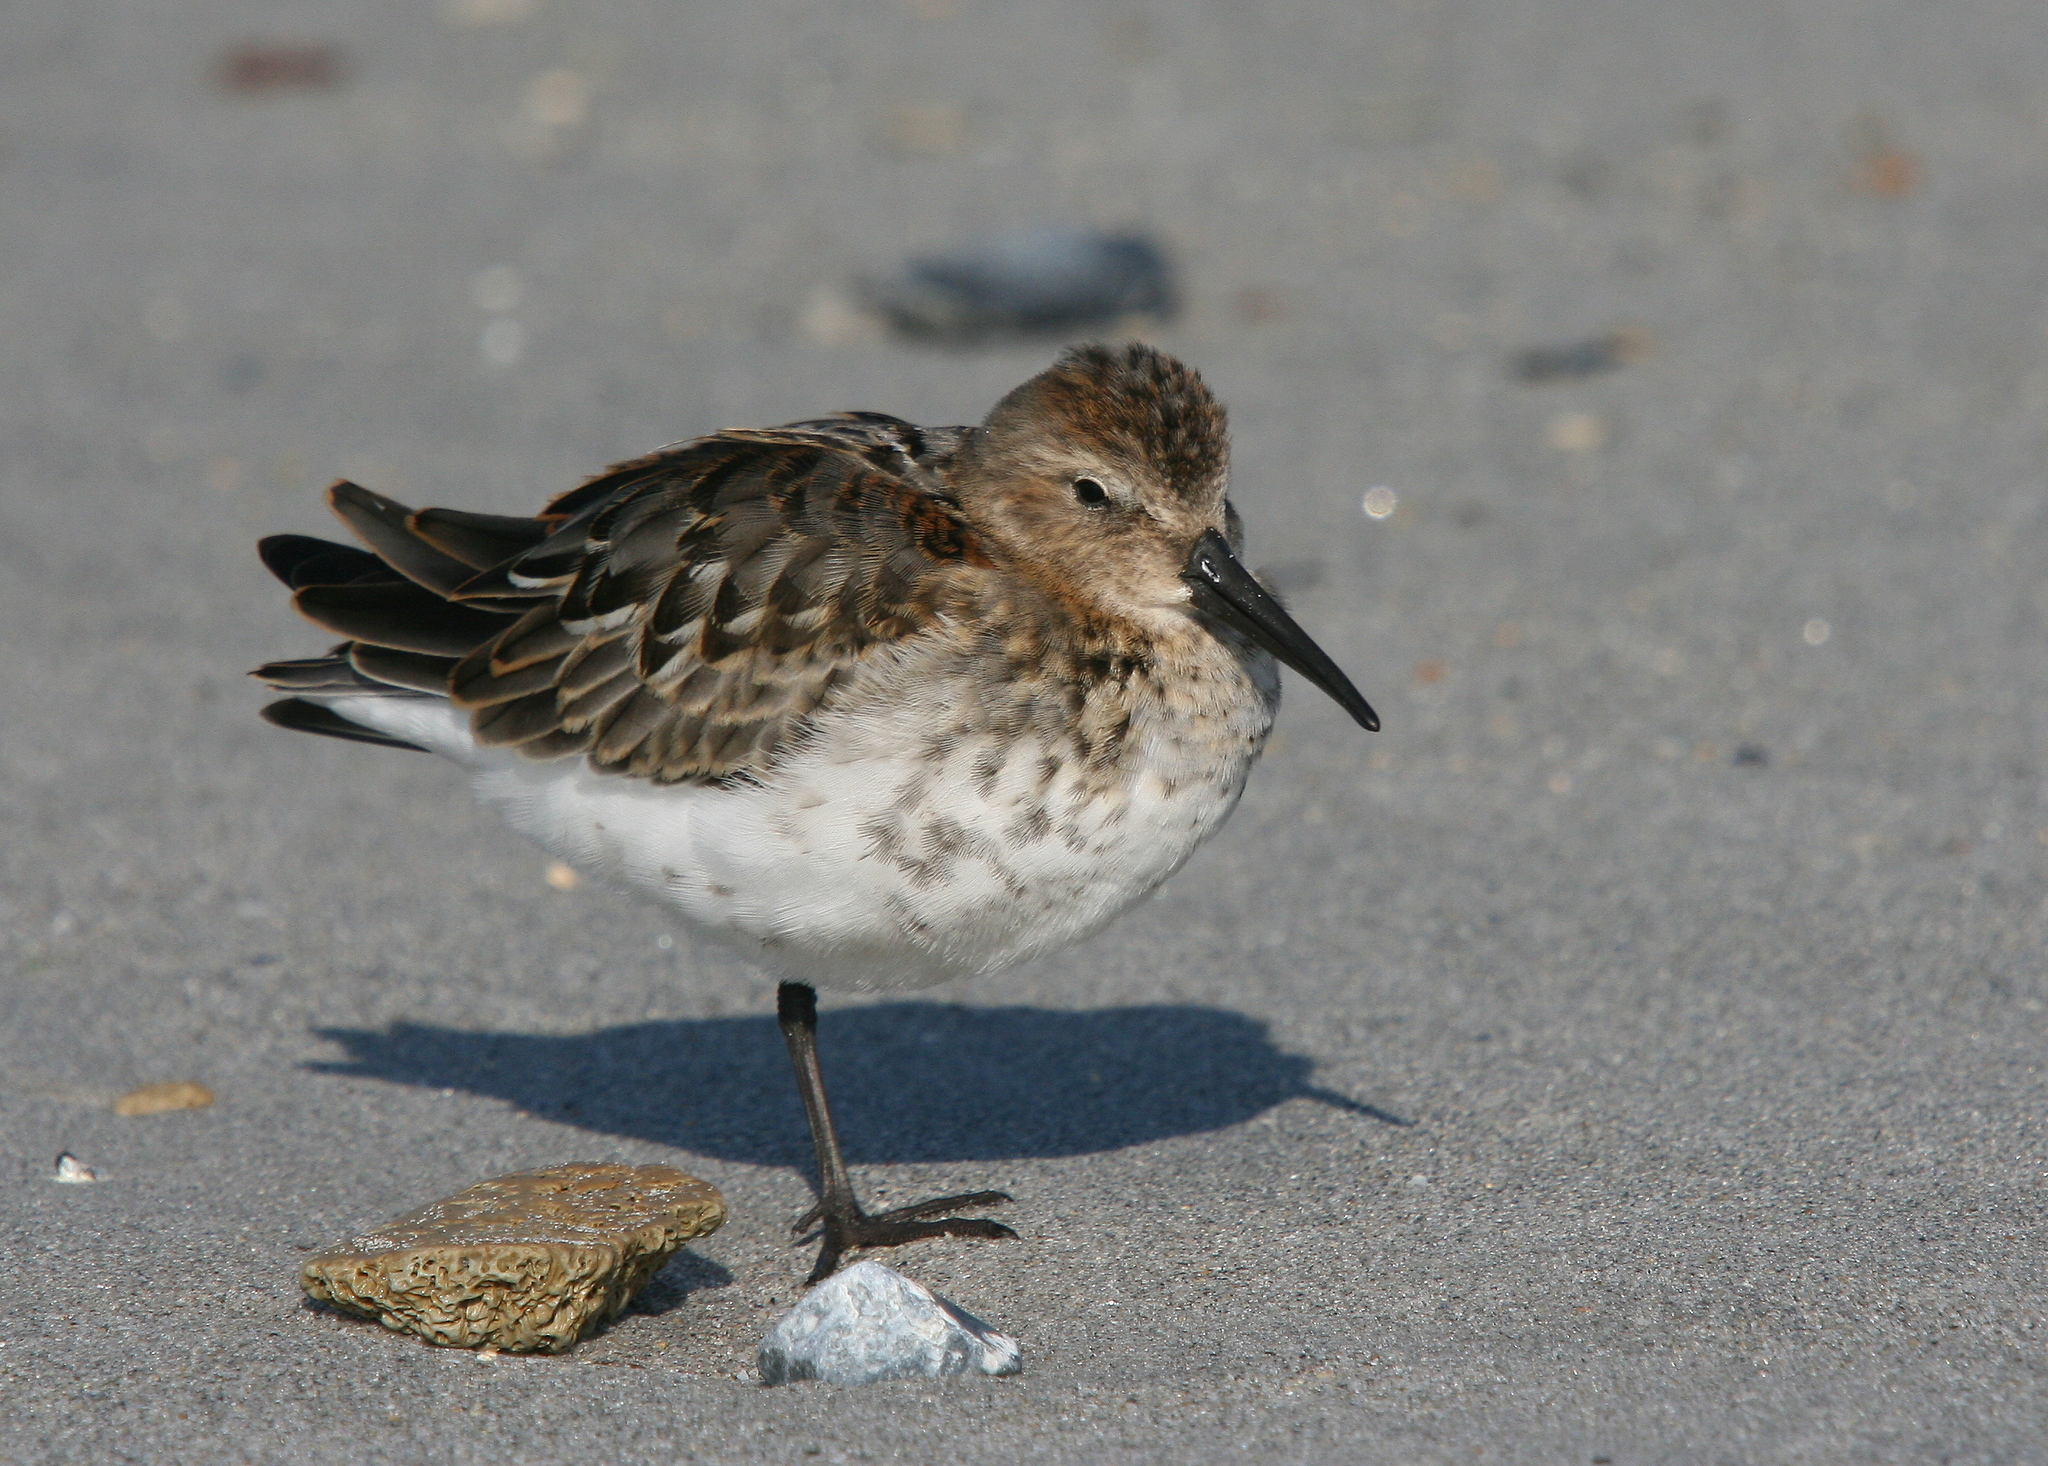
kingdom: Animalia
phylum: Chordata
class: Aves
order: Charadriiformes
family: Scolopacidae
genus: Calidris
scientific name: Calidris alpina
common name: Dunlin
